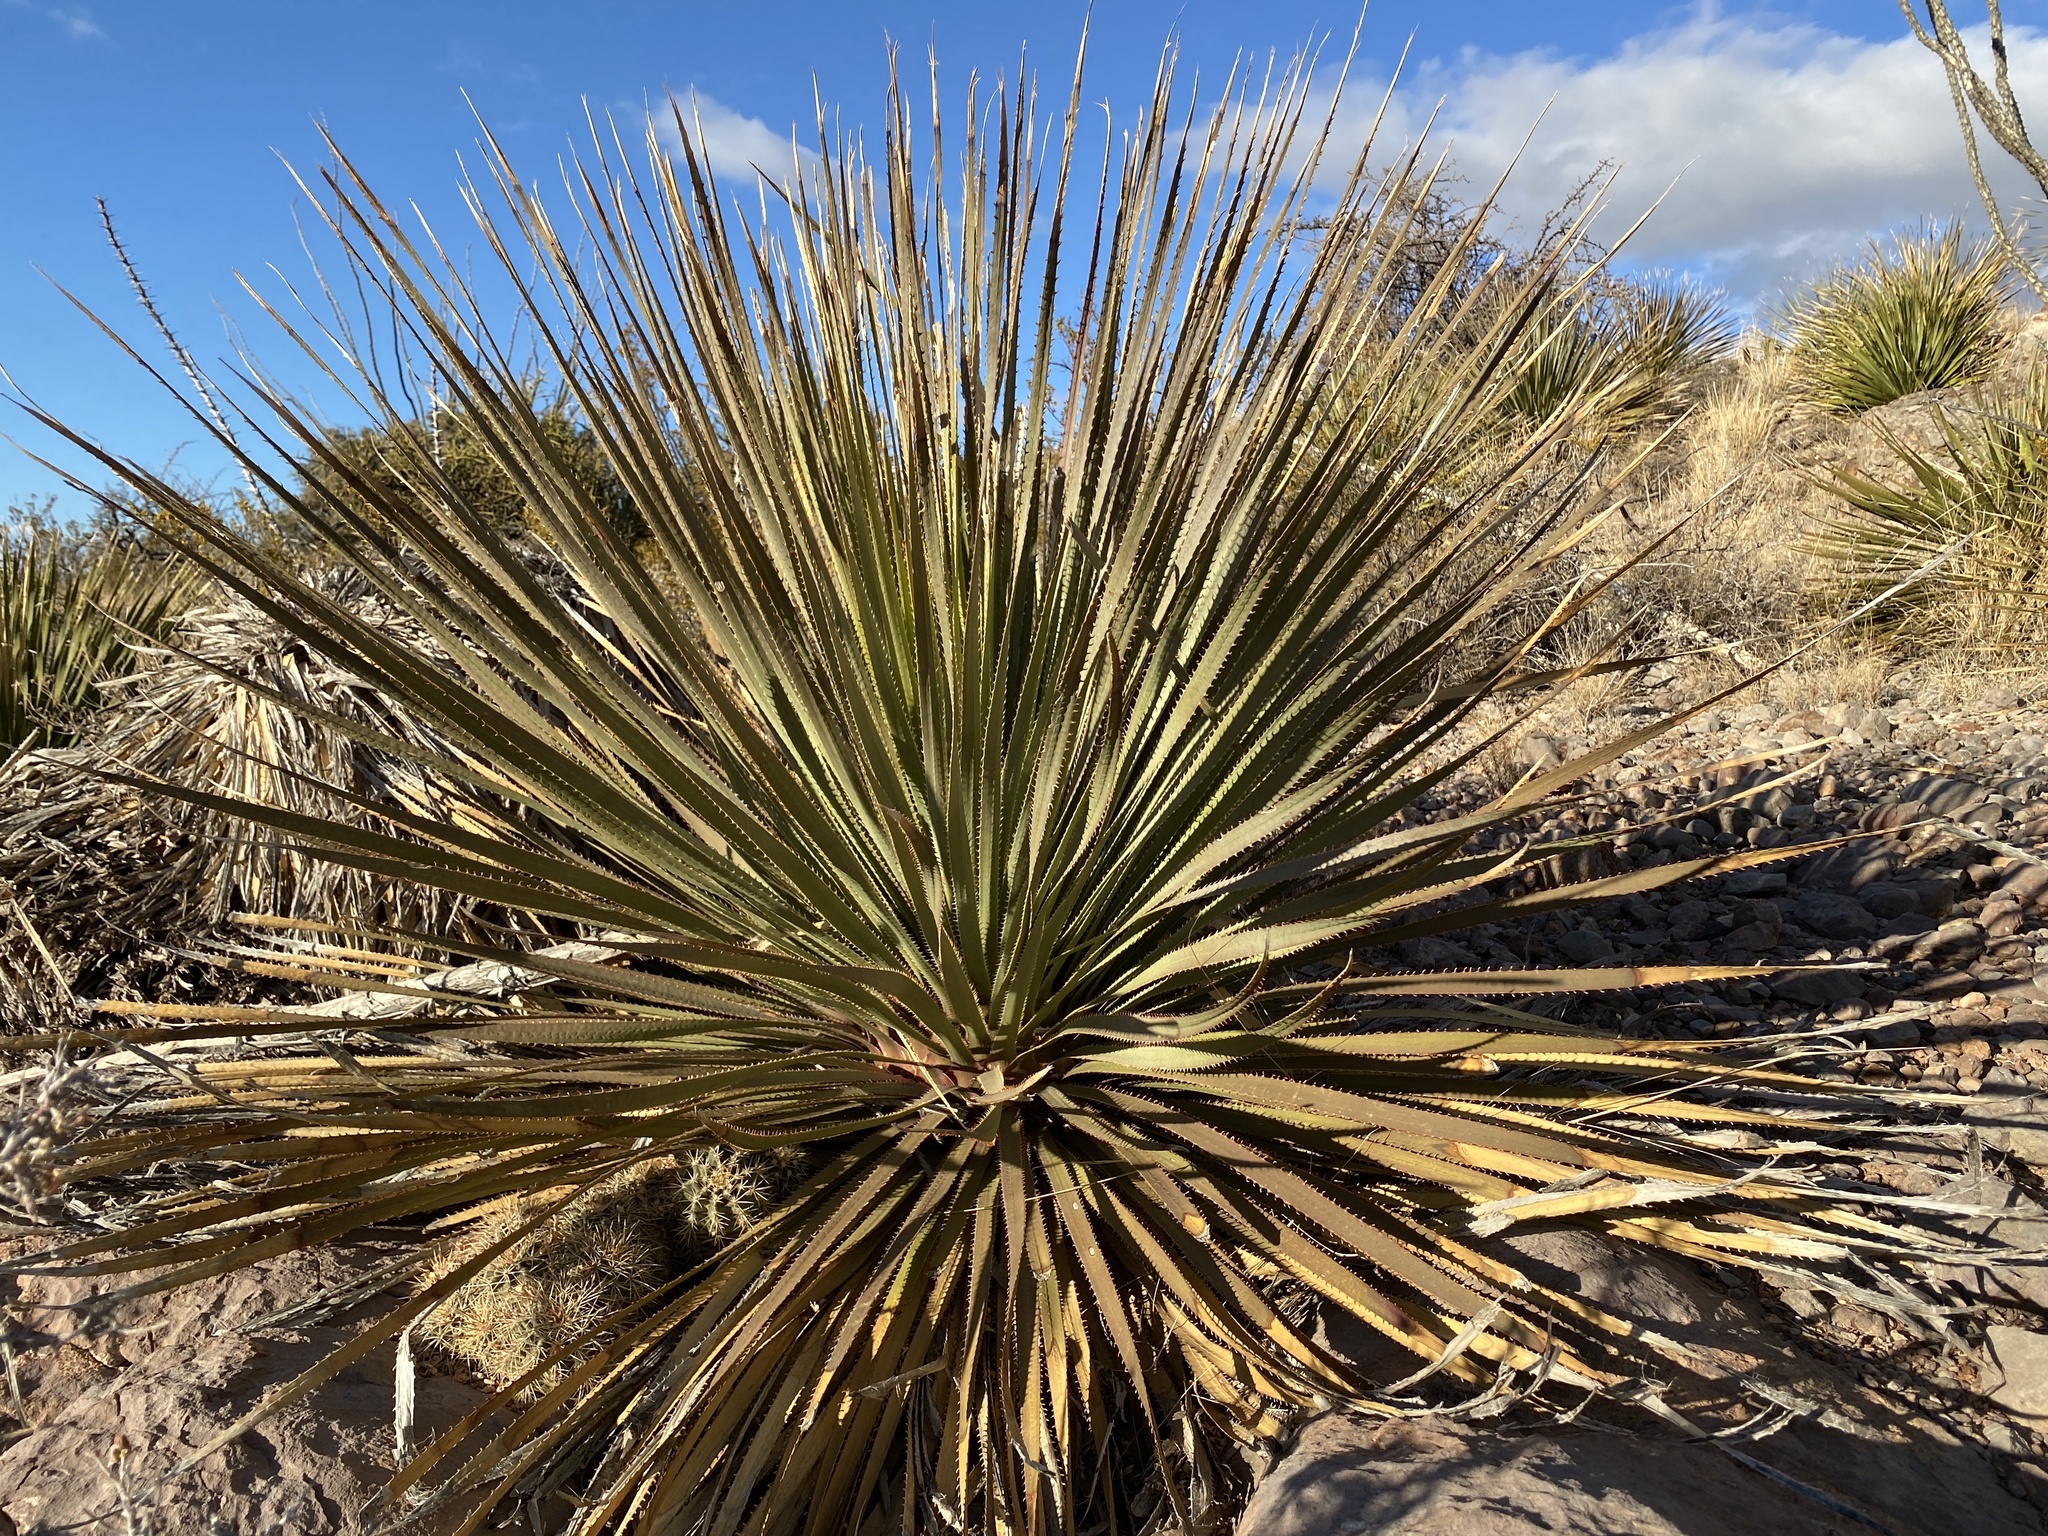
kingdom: Plantae
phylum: Tracheophyta
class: Liliopsida
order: Asparagales
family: Asparagaceae
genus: Dasylirion
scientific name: Dasylirion wheeleri
